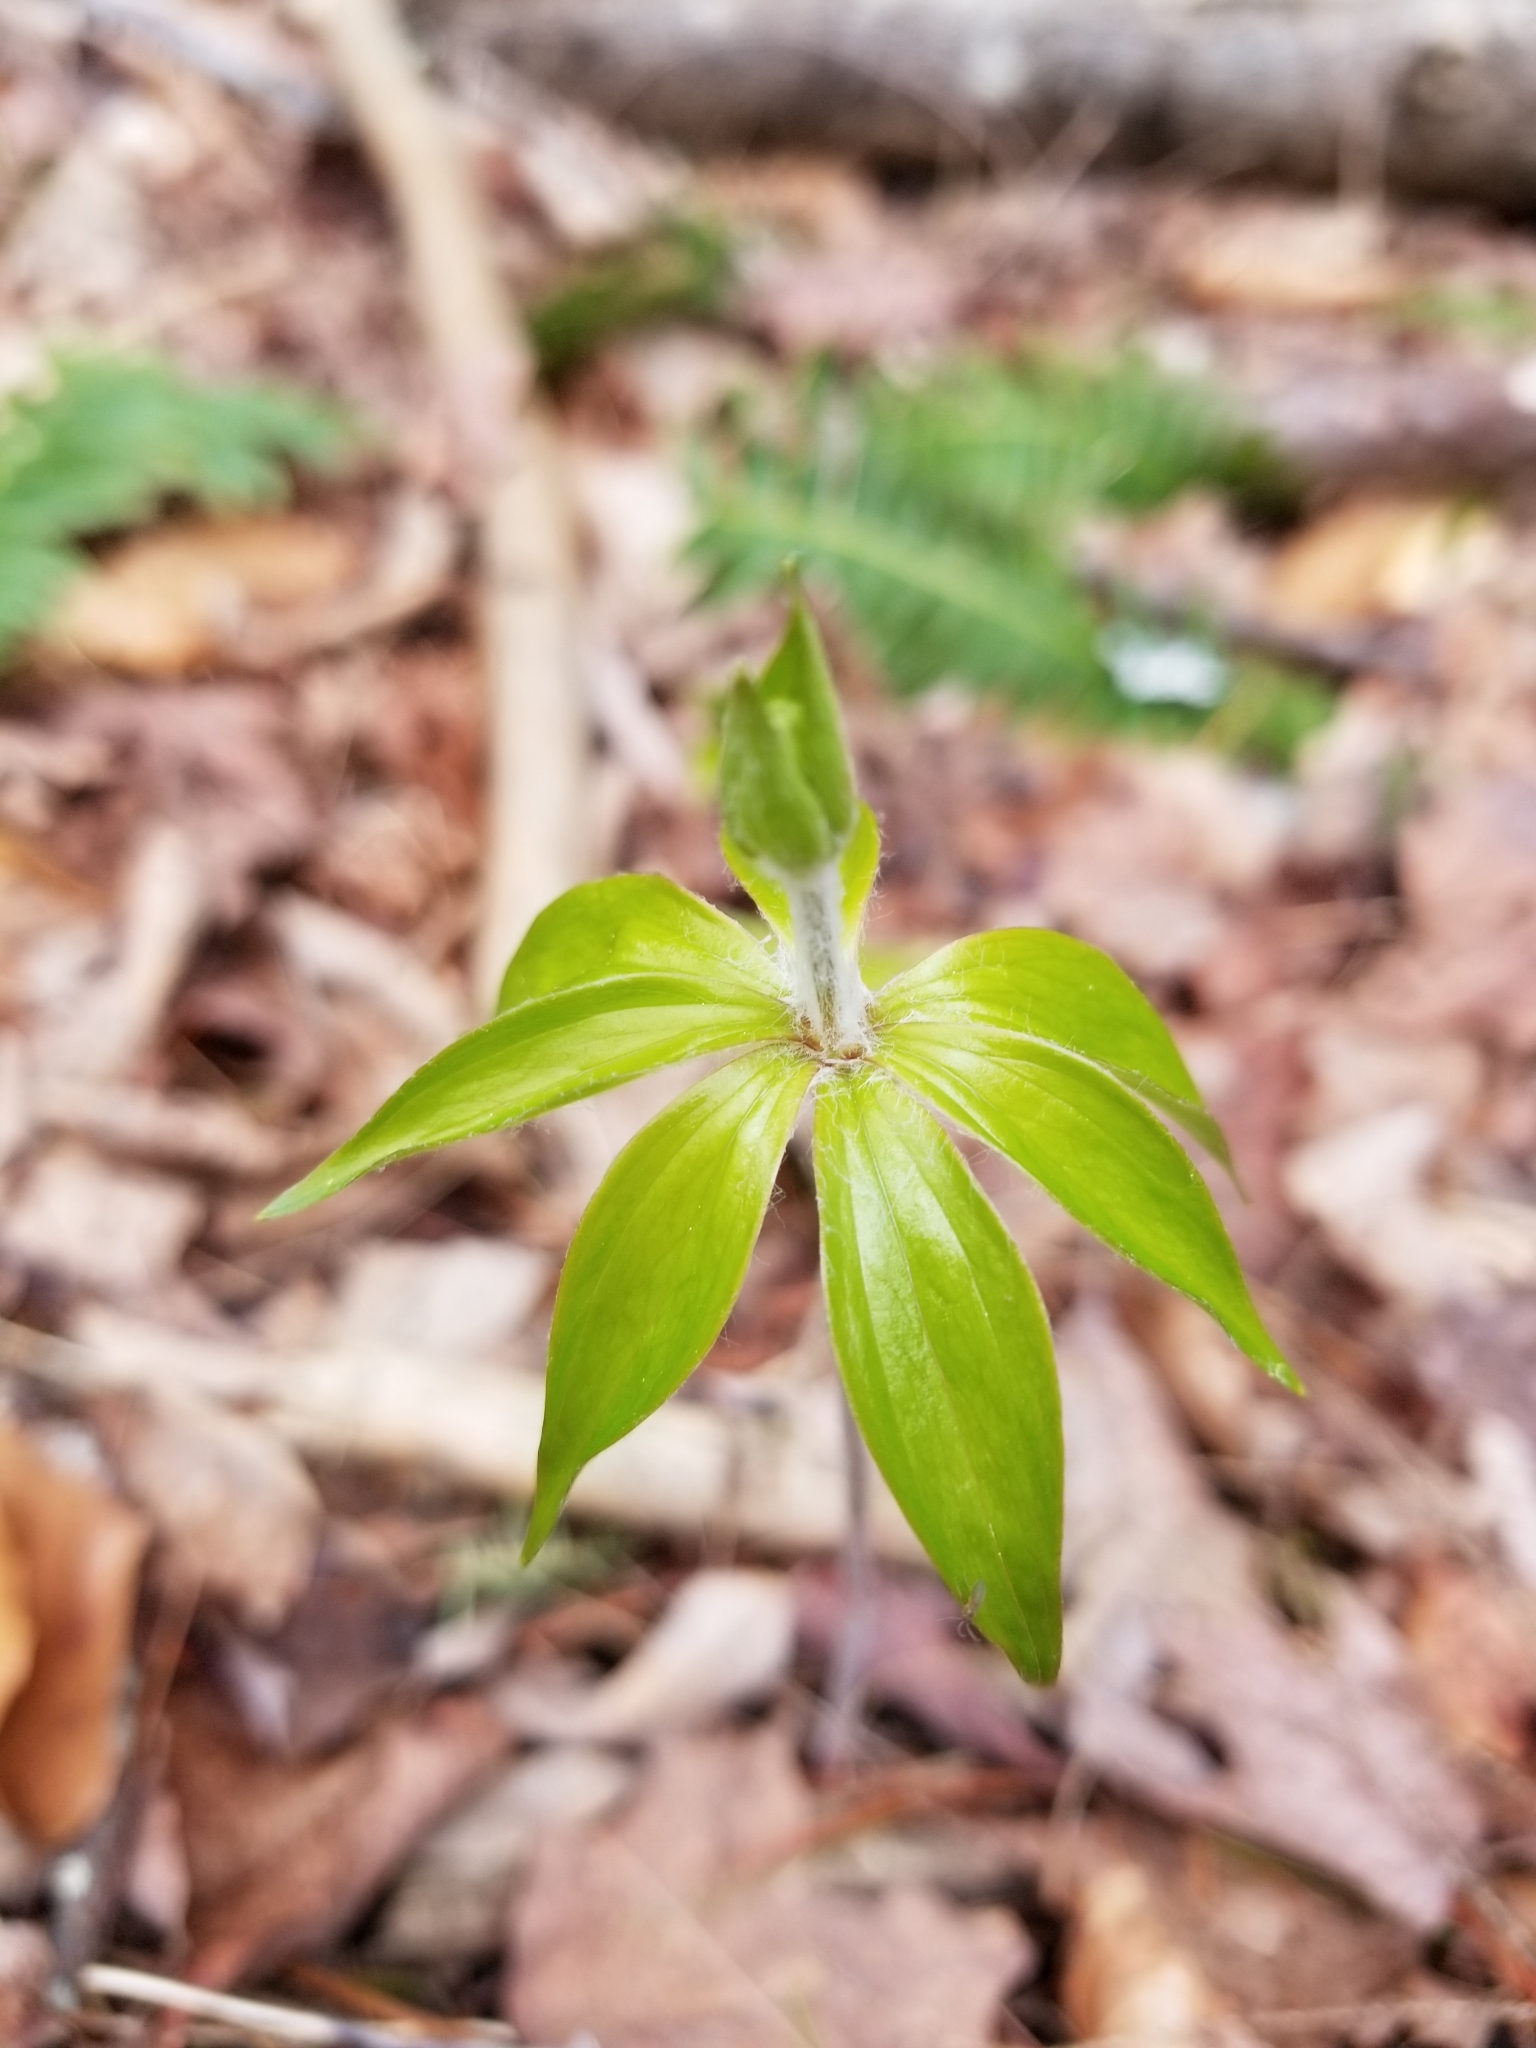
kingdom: Plantae
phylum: Tracheophyta
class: Liliopsida
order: Liliales
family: Liliaceae
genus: Medeola
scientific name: Medeola virginiana
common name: Indian cucumber-root
